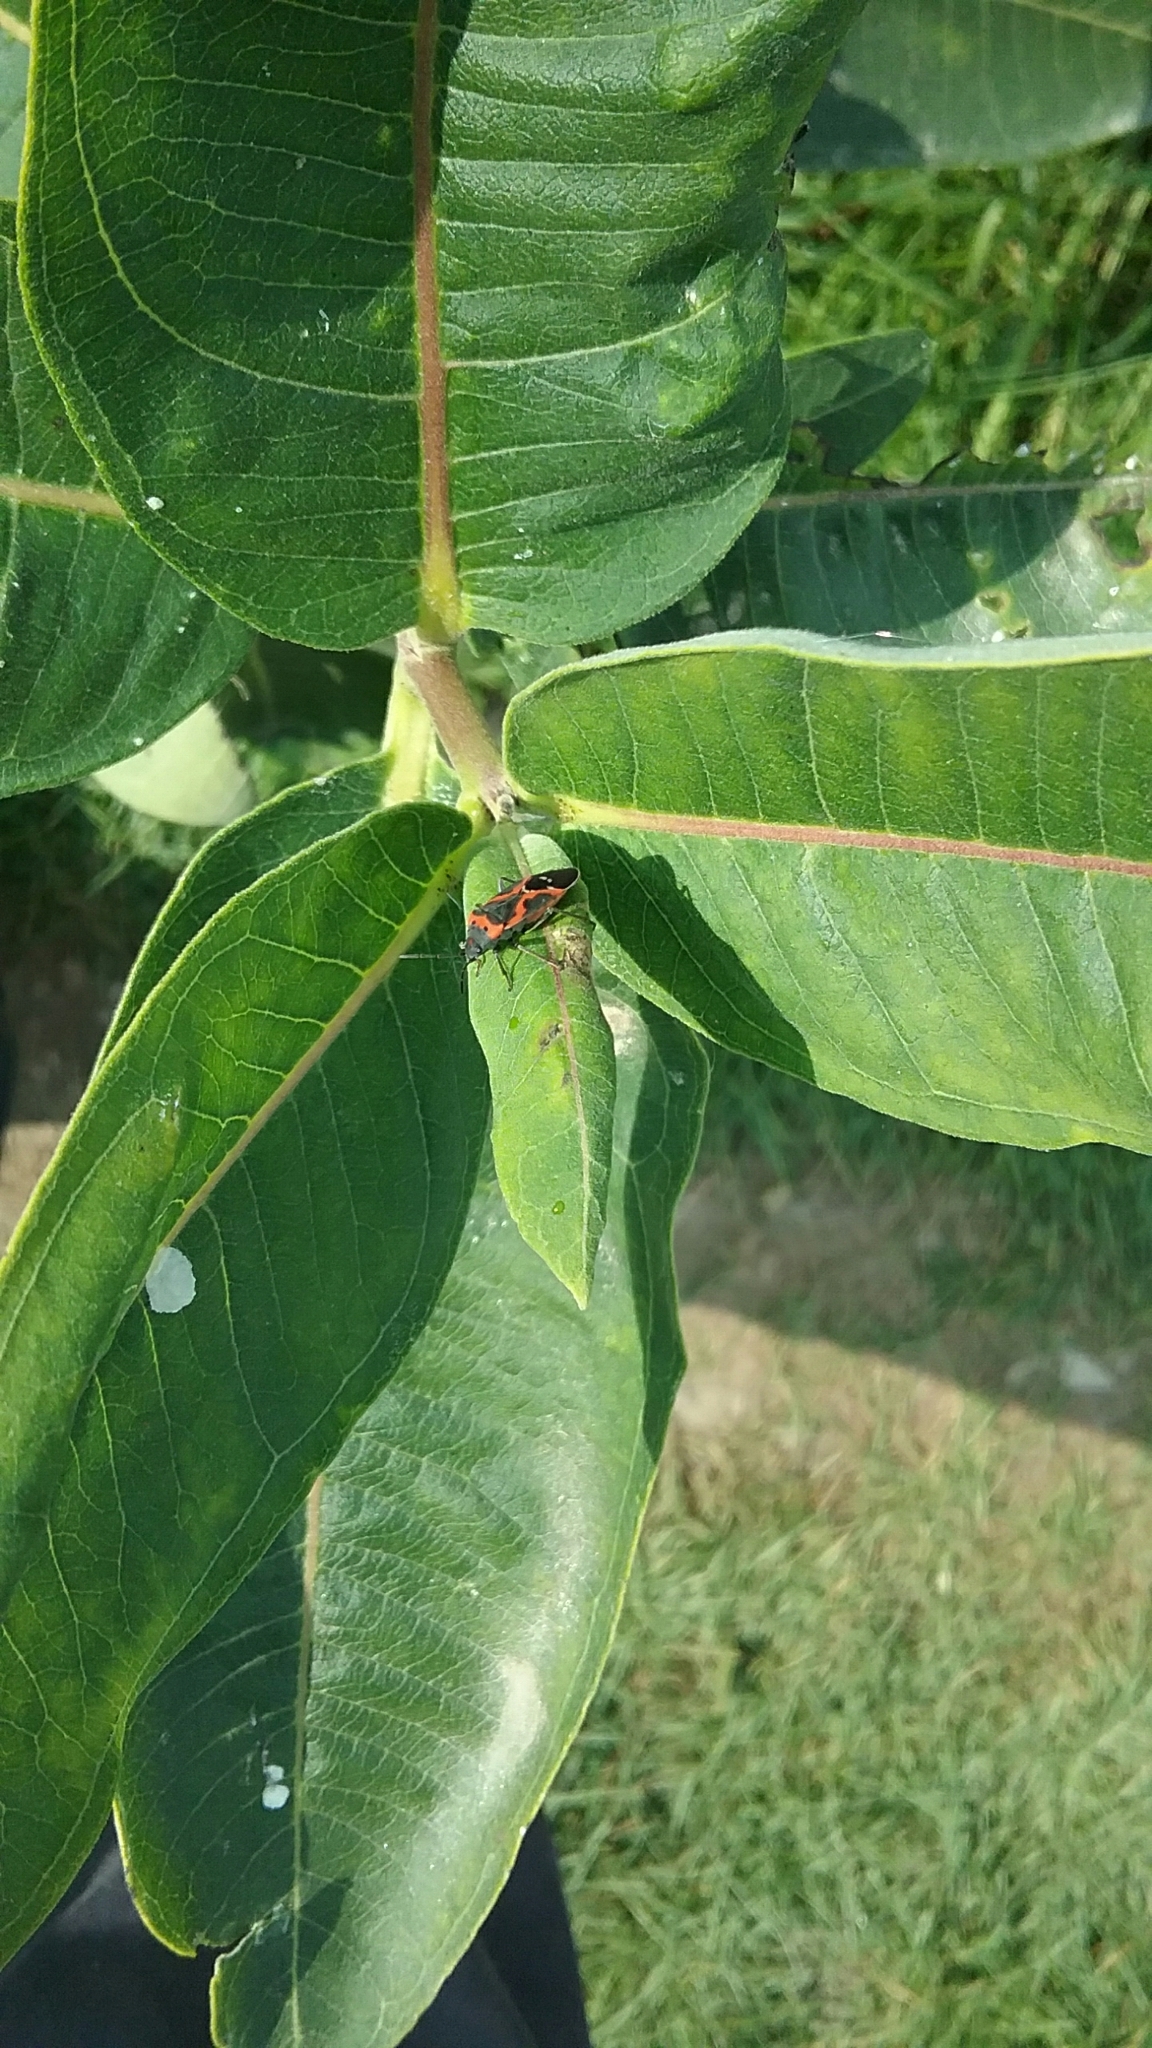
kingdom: Animalia
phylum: Arthropoda
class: Insecta
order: Hemiptera
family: Lygaeidae
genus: Lygaeus
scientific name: Lygaeus kalmii
